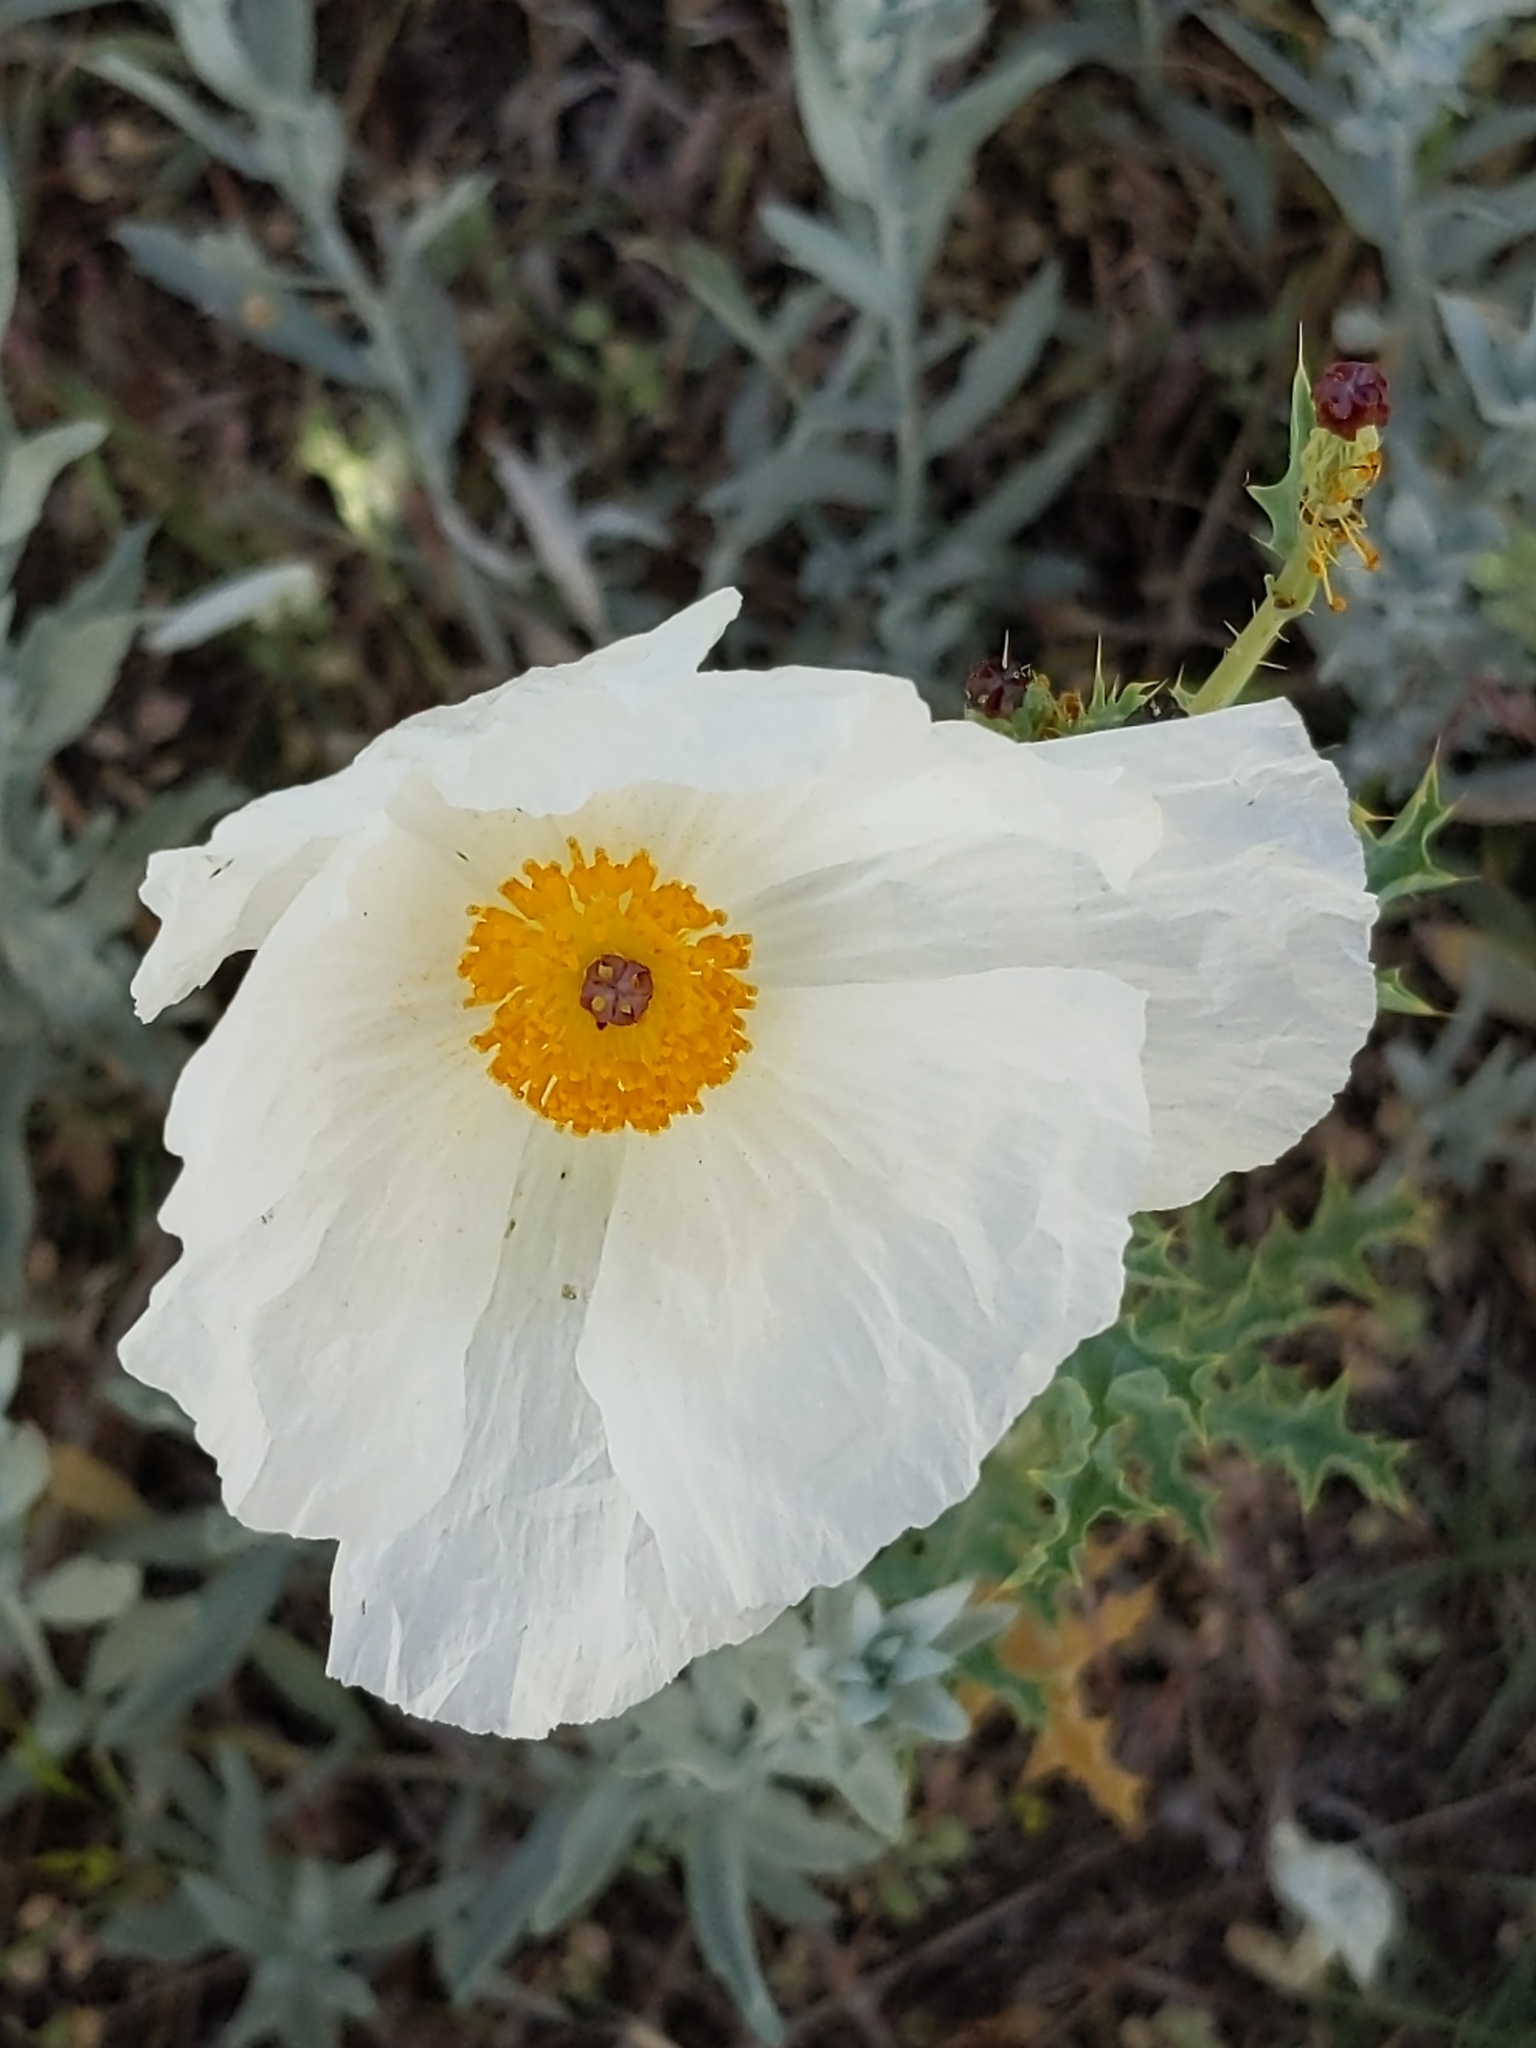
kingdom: Plantae
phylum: Tracheophyta
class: Magnoliopsida
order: Ranunculales
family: Papaveraceae
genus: Argemone
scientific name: Argemone polyanthemos
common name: Plains prickly-poppy
